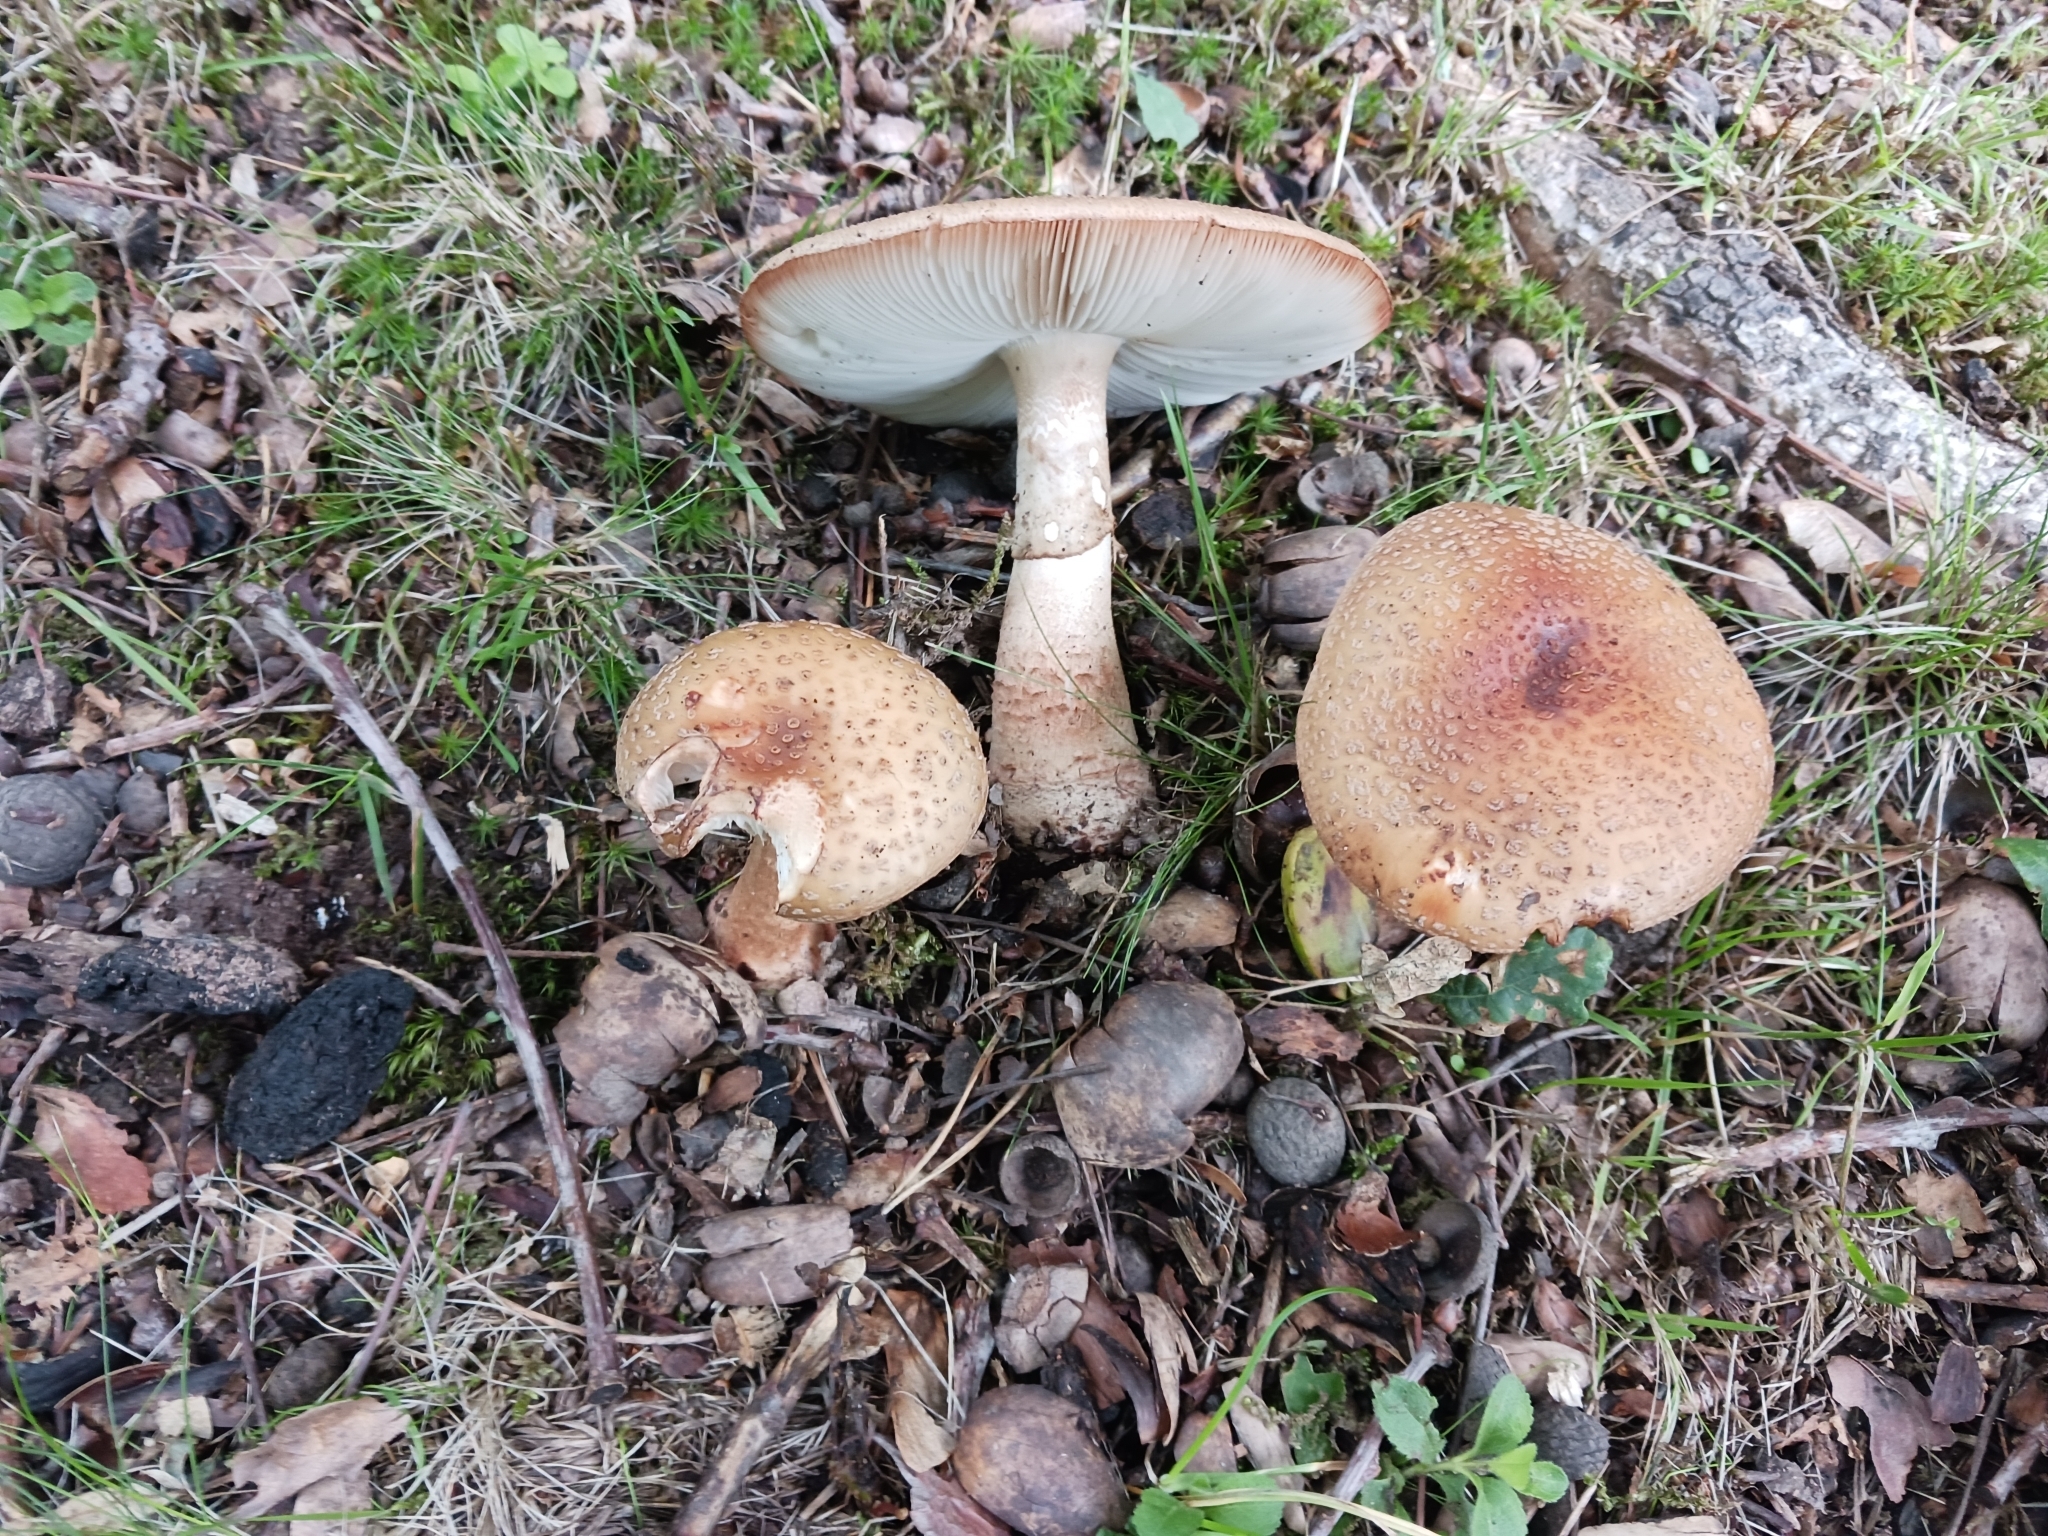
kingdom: Fungi
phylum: Basidiomycota
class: Agaricomycetes
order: Agaricales
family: Amanitaceae
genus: Amanita
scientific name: Amanita rubescens
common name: Blusher
